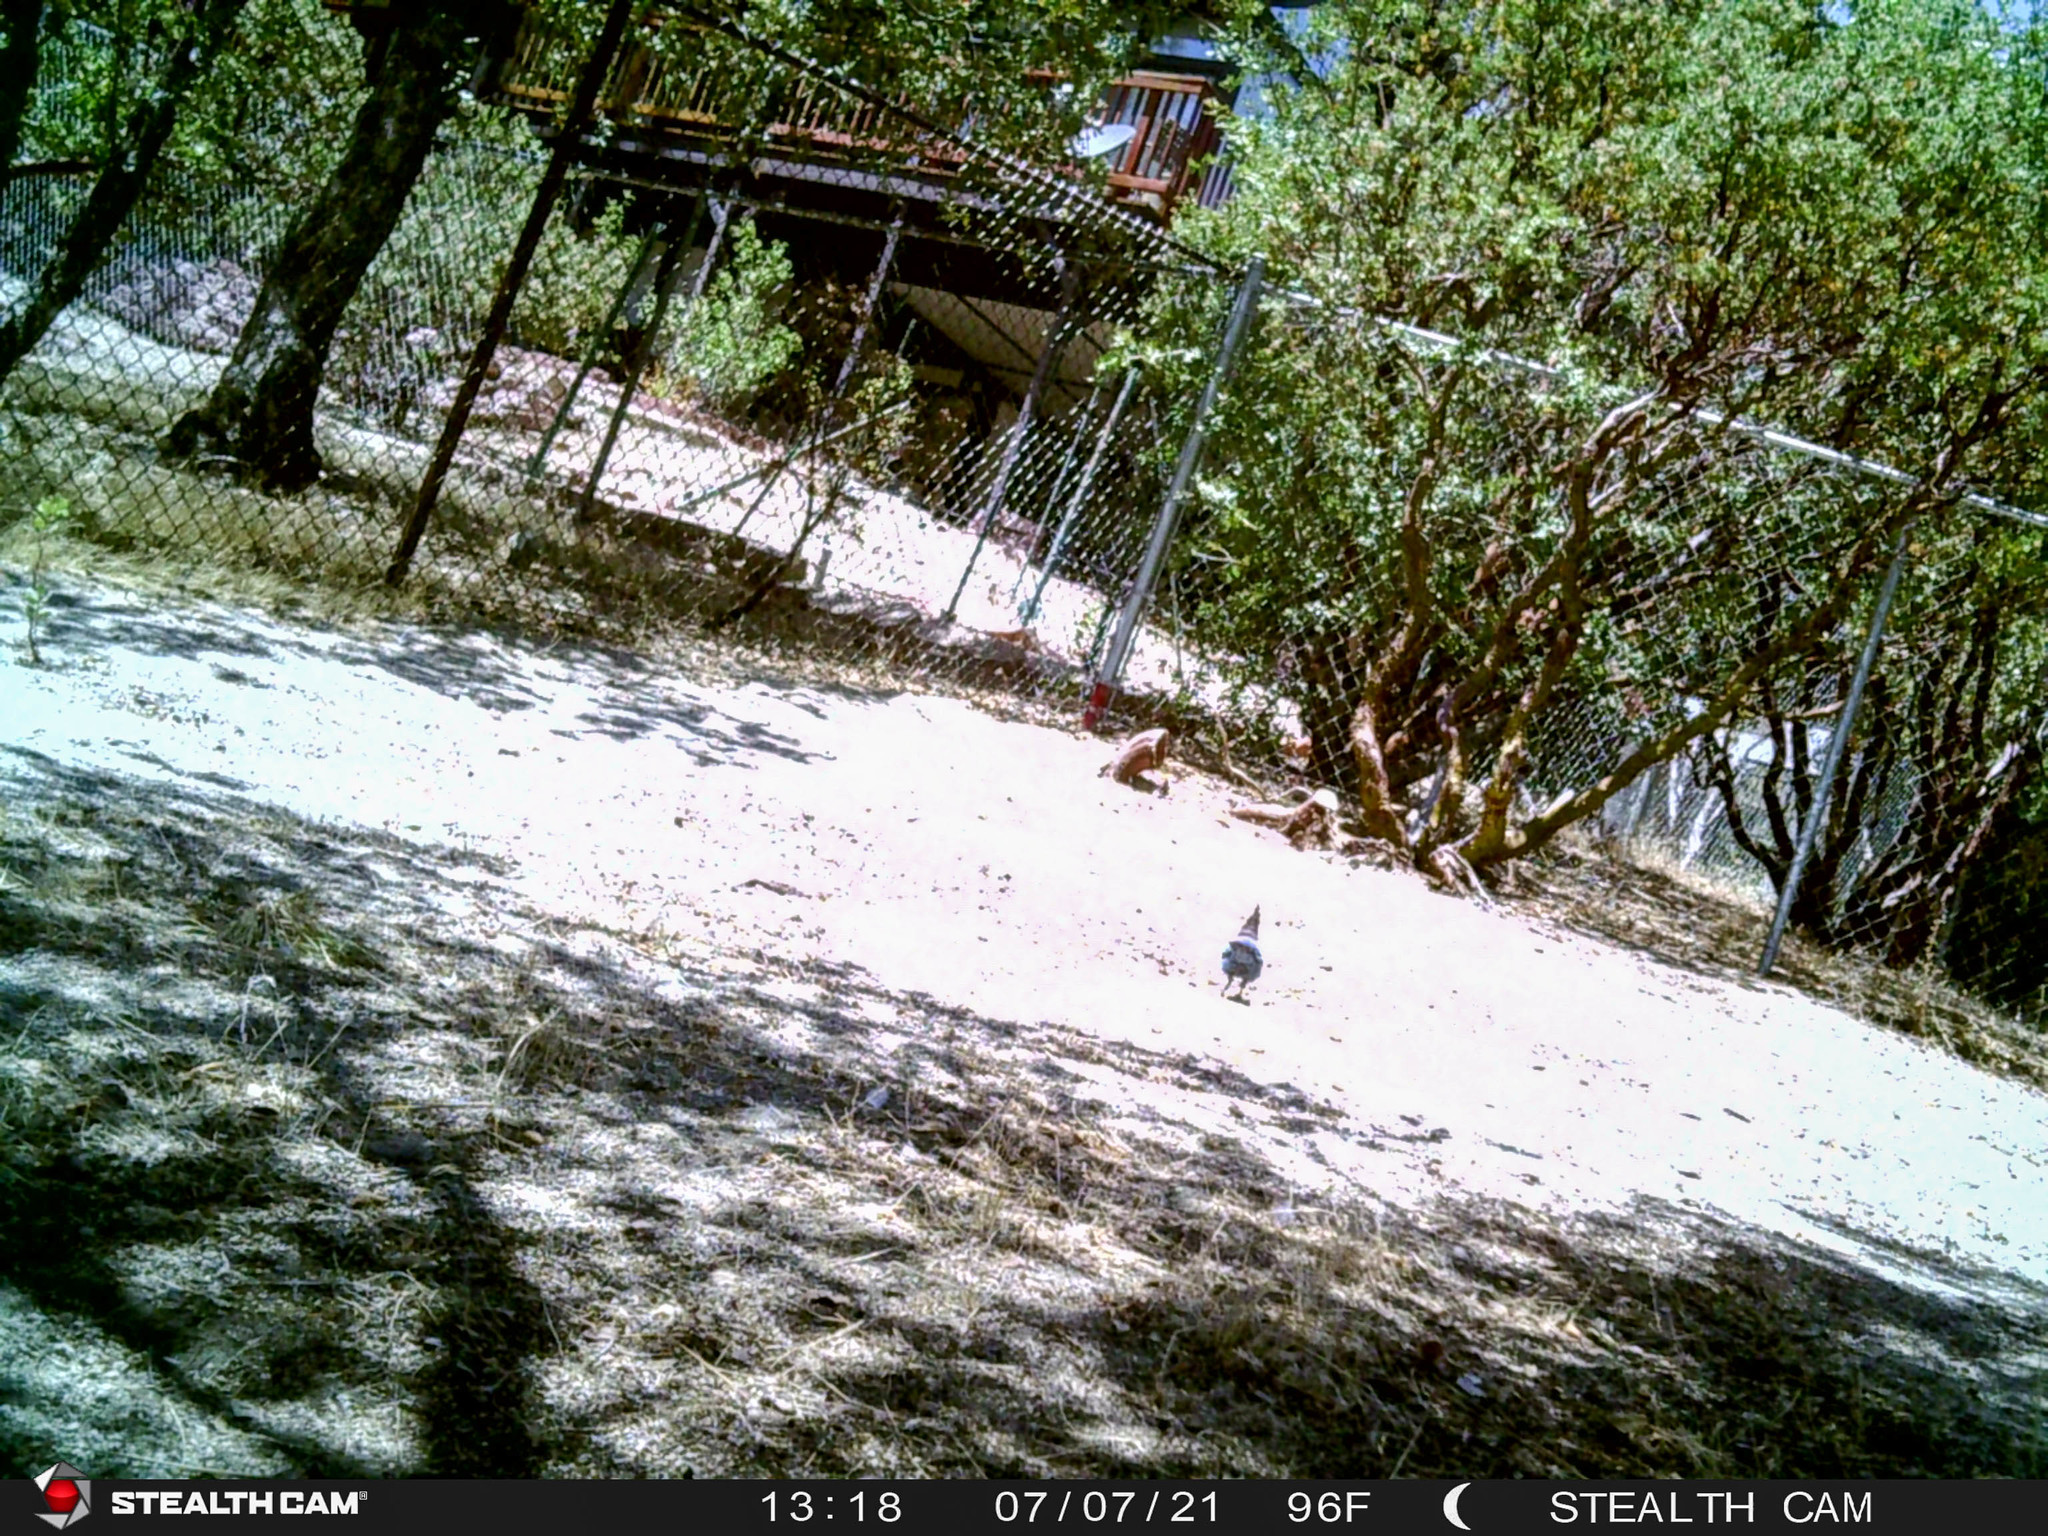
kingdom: Animalia
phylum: Chordata
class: Aves
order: Passeriformes
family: Corvidae
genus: Cyanocitta
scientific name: Cyanocitta stelleri
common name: Steller's jay
